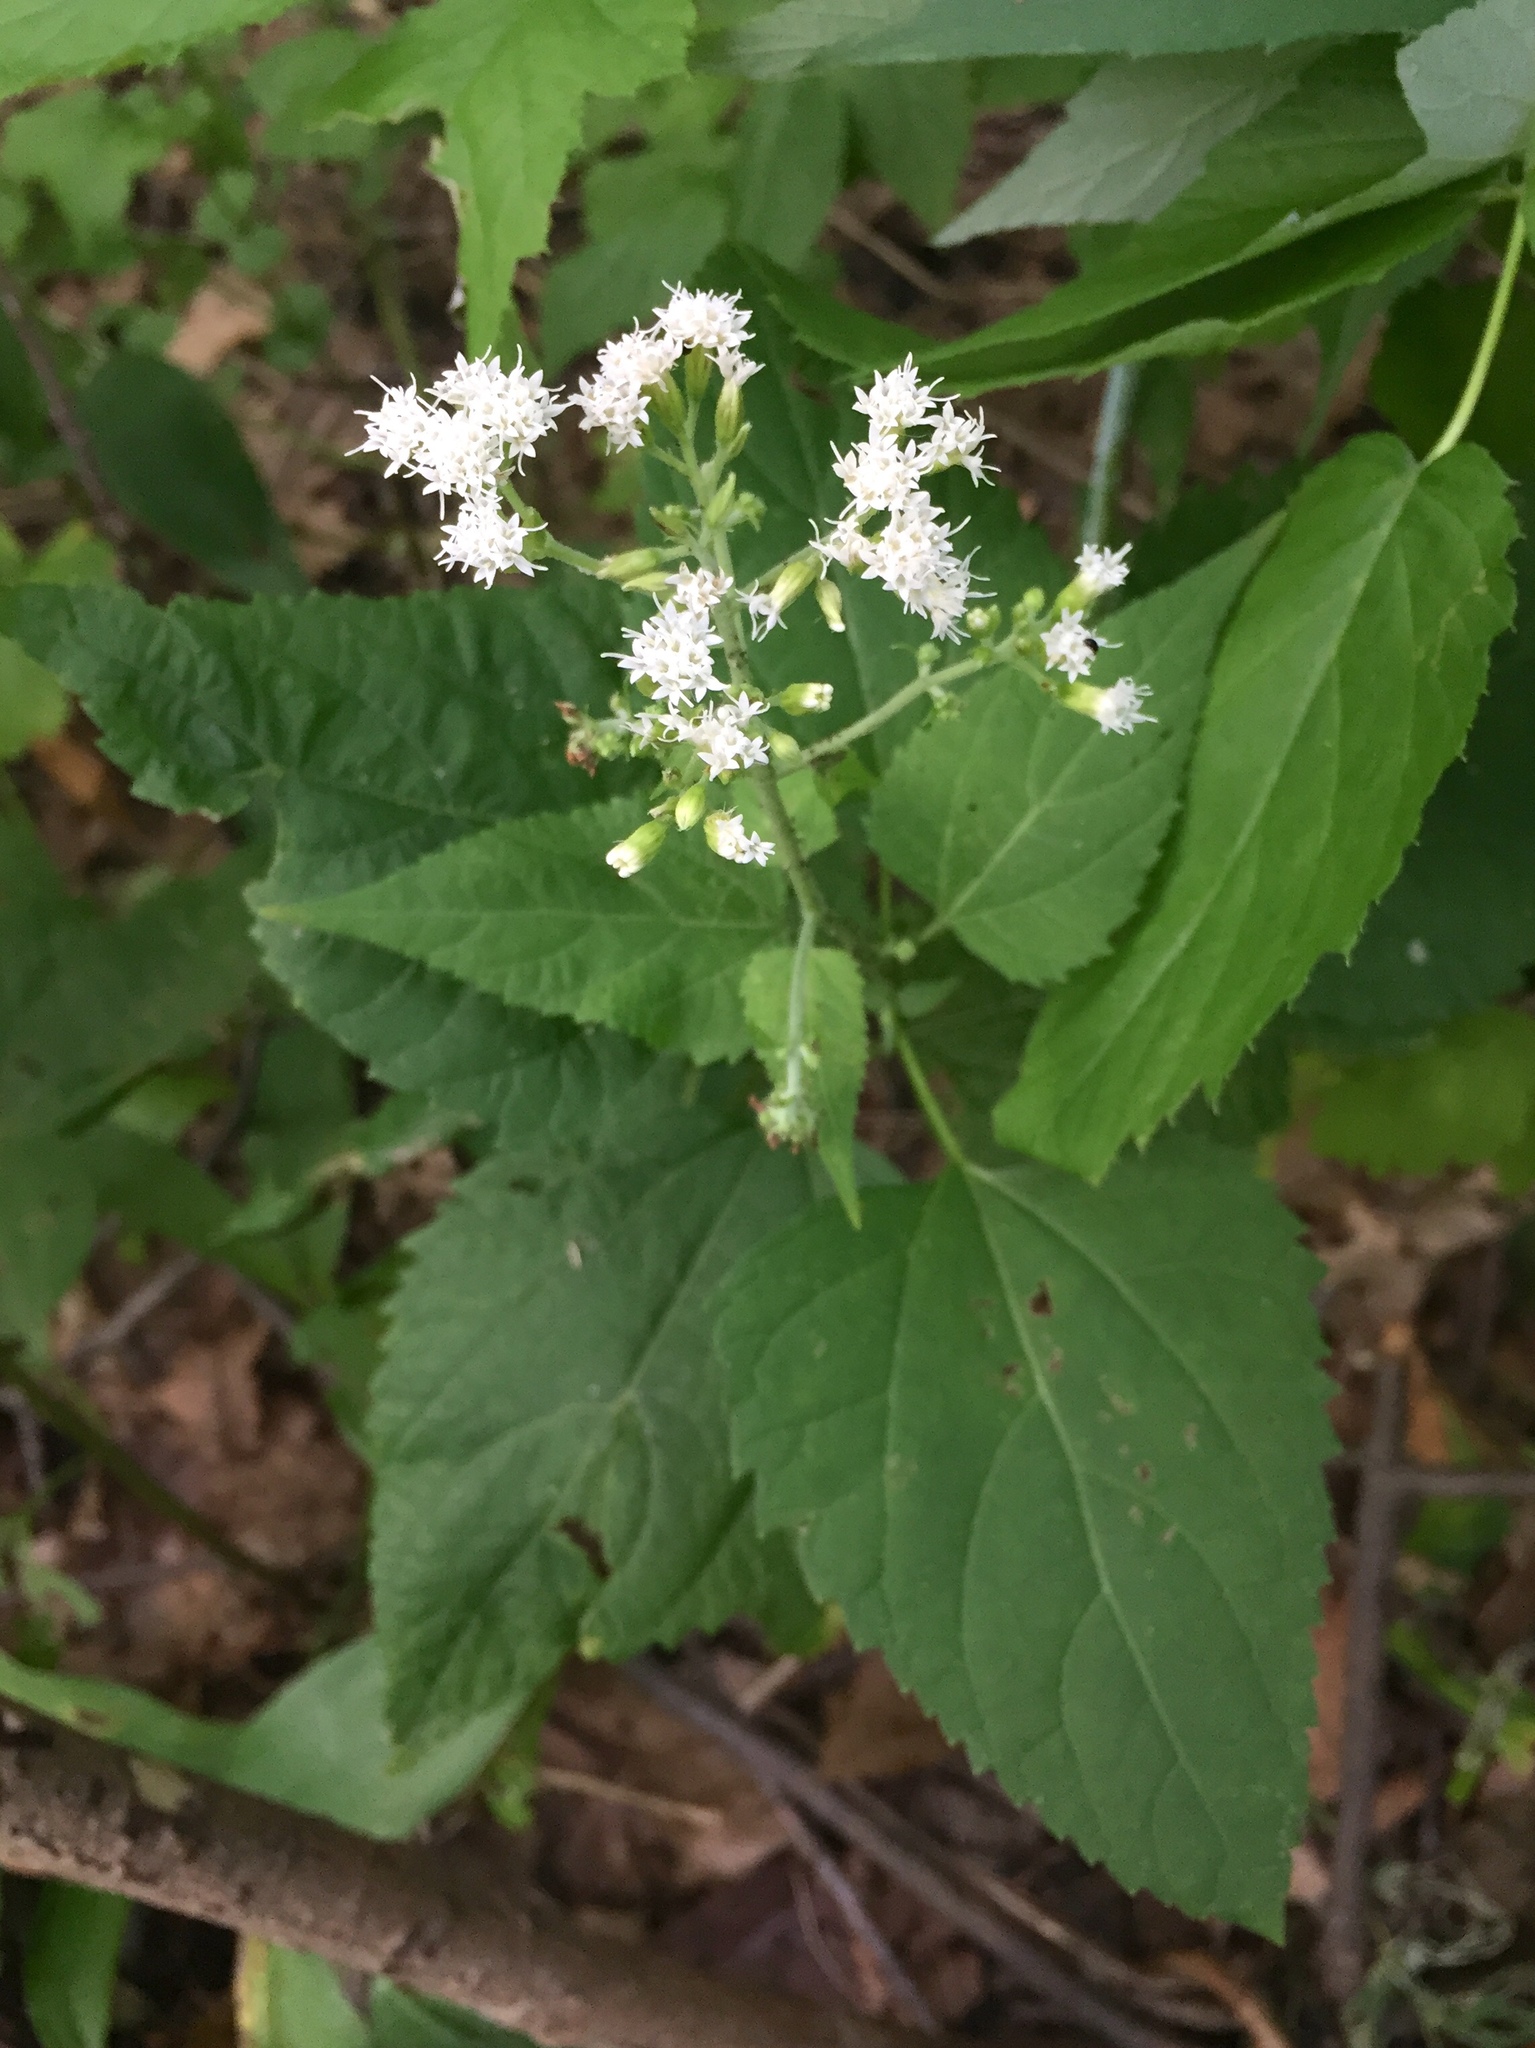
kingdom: Plantae
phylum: Tracheophyta
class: Magnoliopsida
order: Asterales
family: Asteraceae
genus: Ageratina
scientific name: Ageratina altissima
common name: White snakeroot
